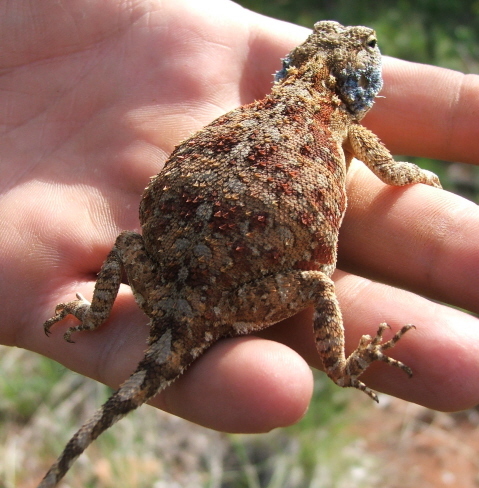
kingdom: Animalia
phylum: Chordata
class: Squamata
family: Agamidae
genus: Agama
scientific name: Agama aculeata
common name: Common ground agama
